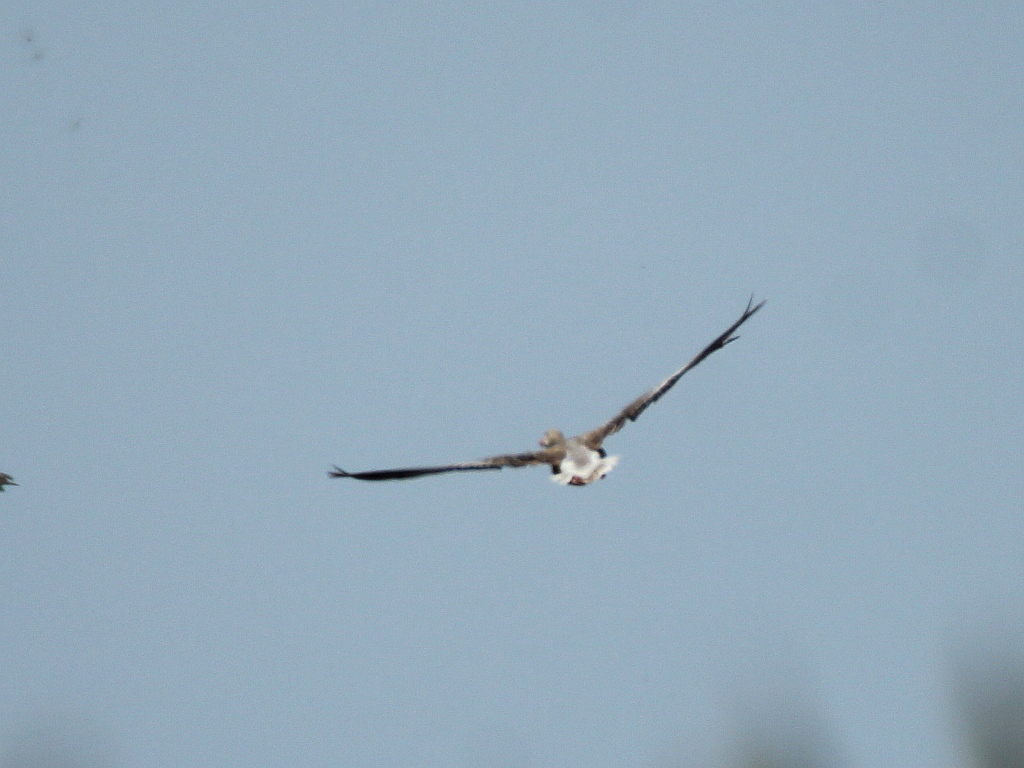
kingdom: Animalia
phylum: Chordata
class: Aves
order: Anseriformes
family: Anatidae
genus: Anser
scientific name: Anser anser
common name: Greylag goose
